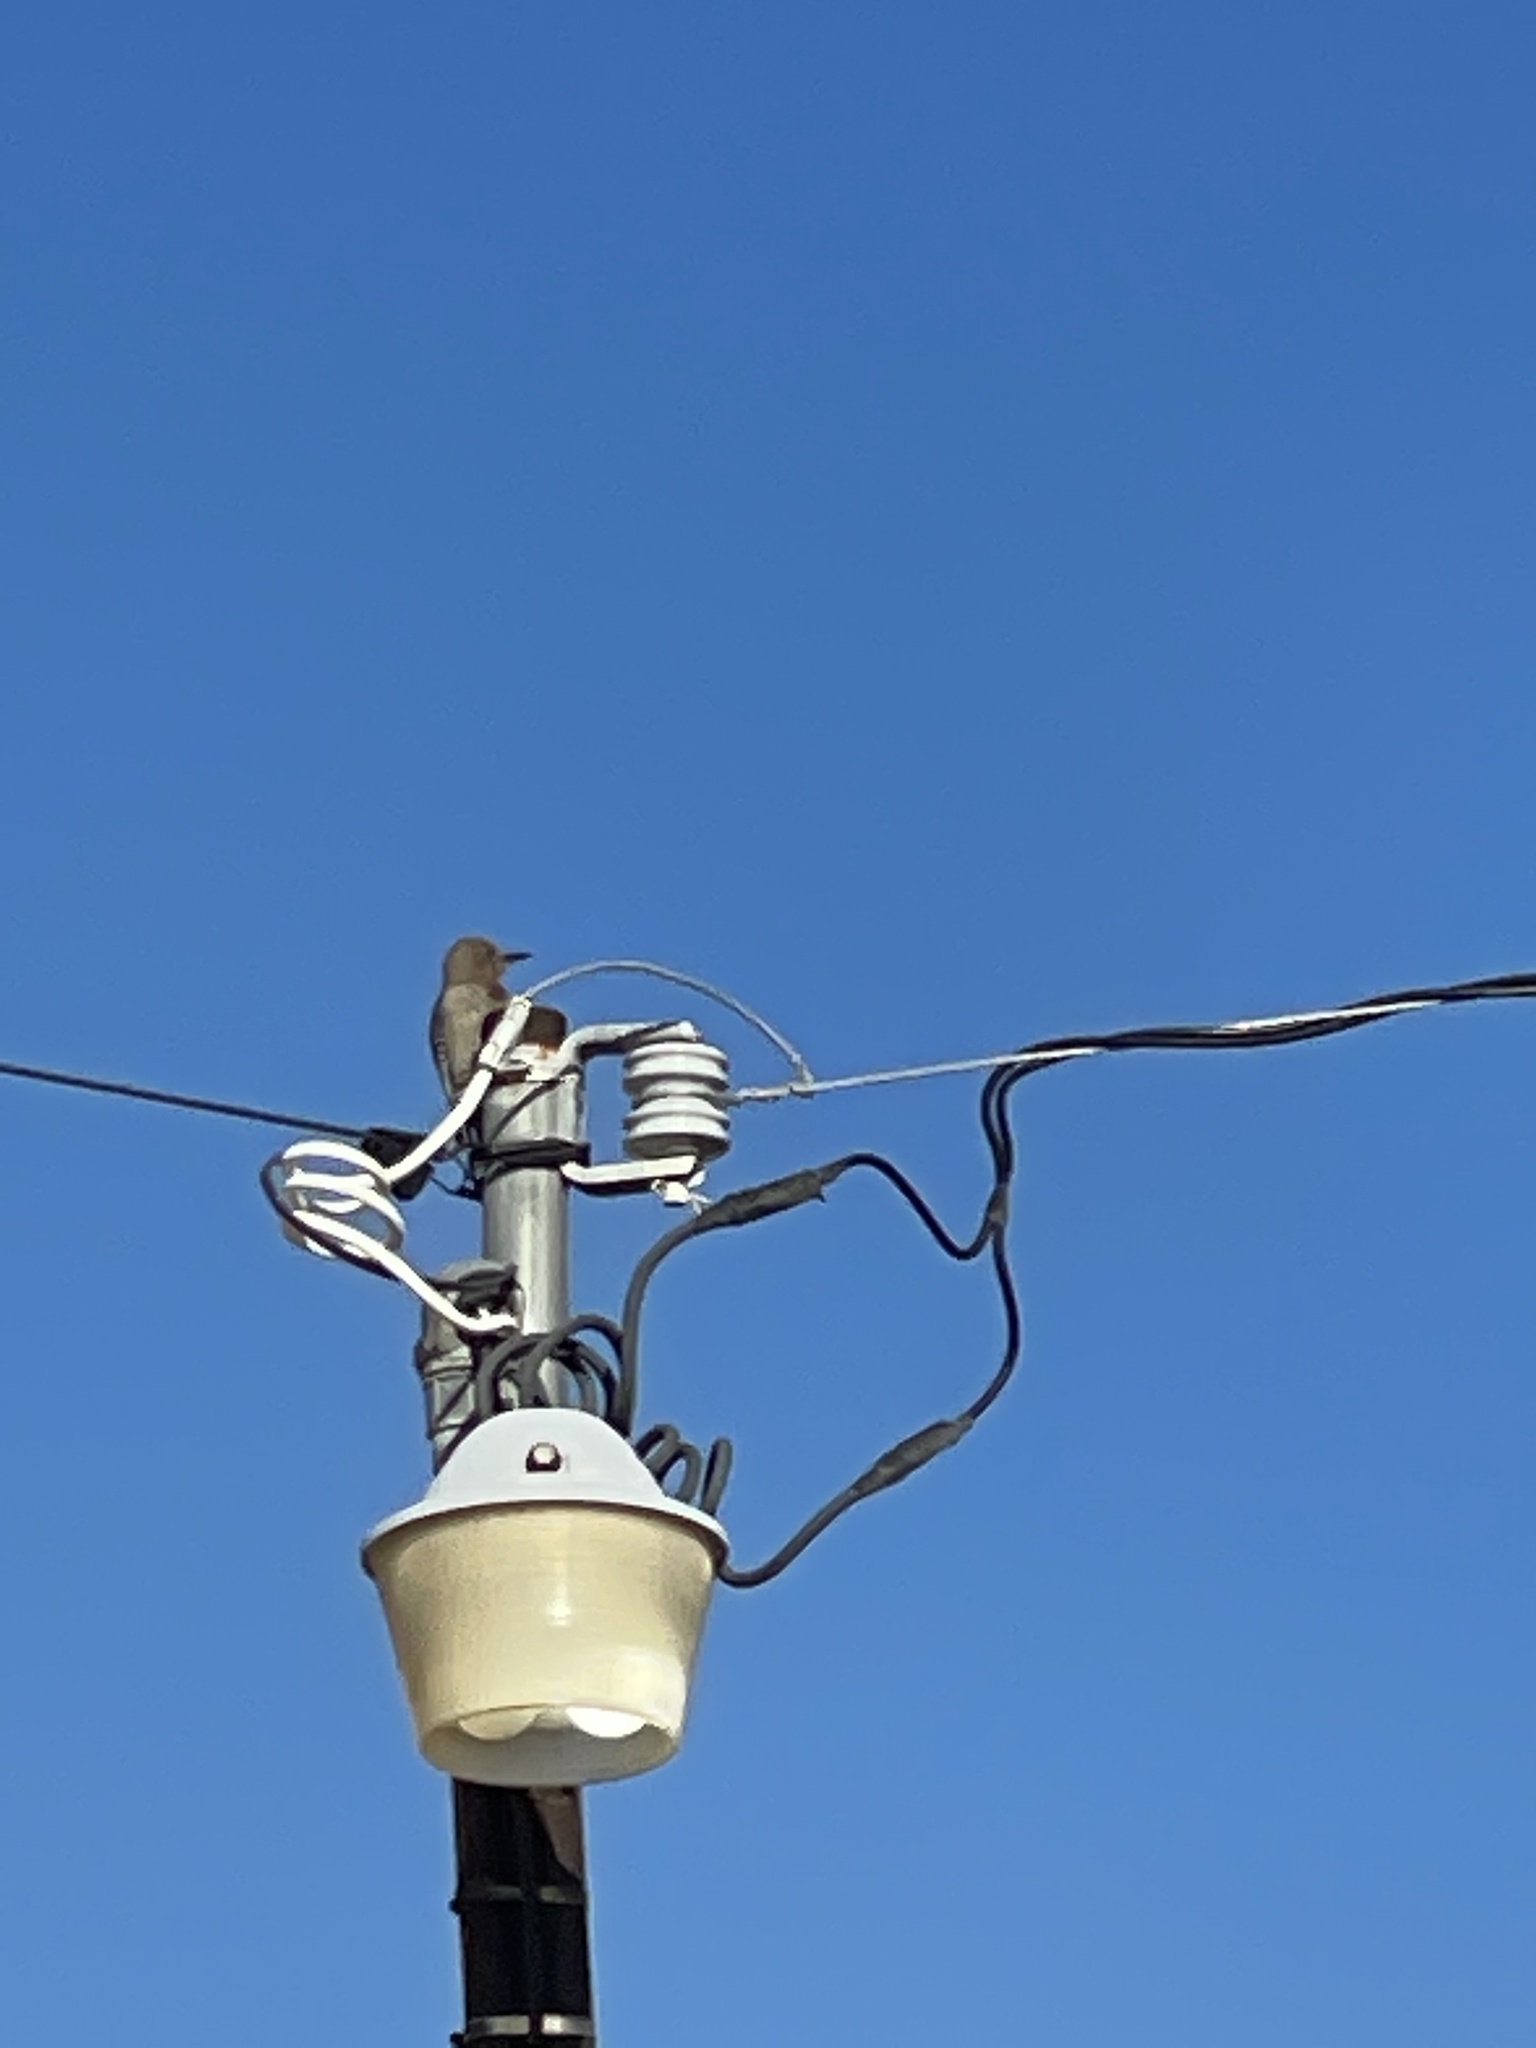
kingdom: Animalia
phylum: Chordata
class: Aves
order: Piciformes
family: Picidae
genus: Melanerpes
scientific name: Melanerpes uropygialis
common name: Gila woodpecker
